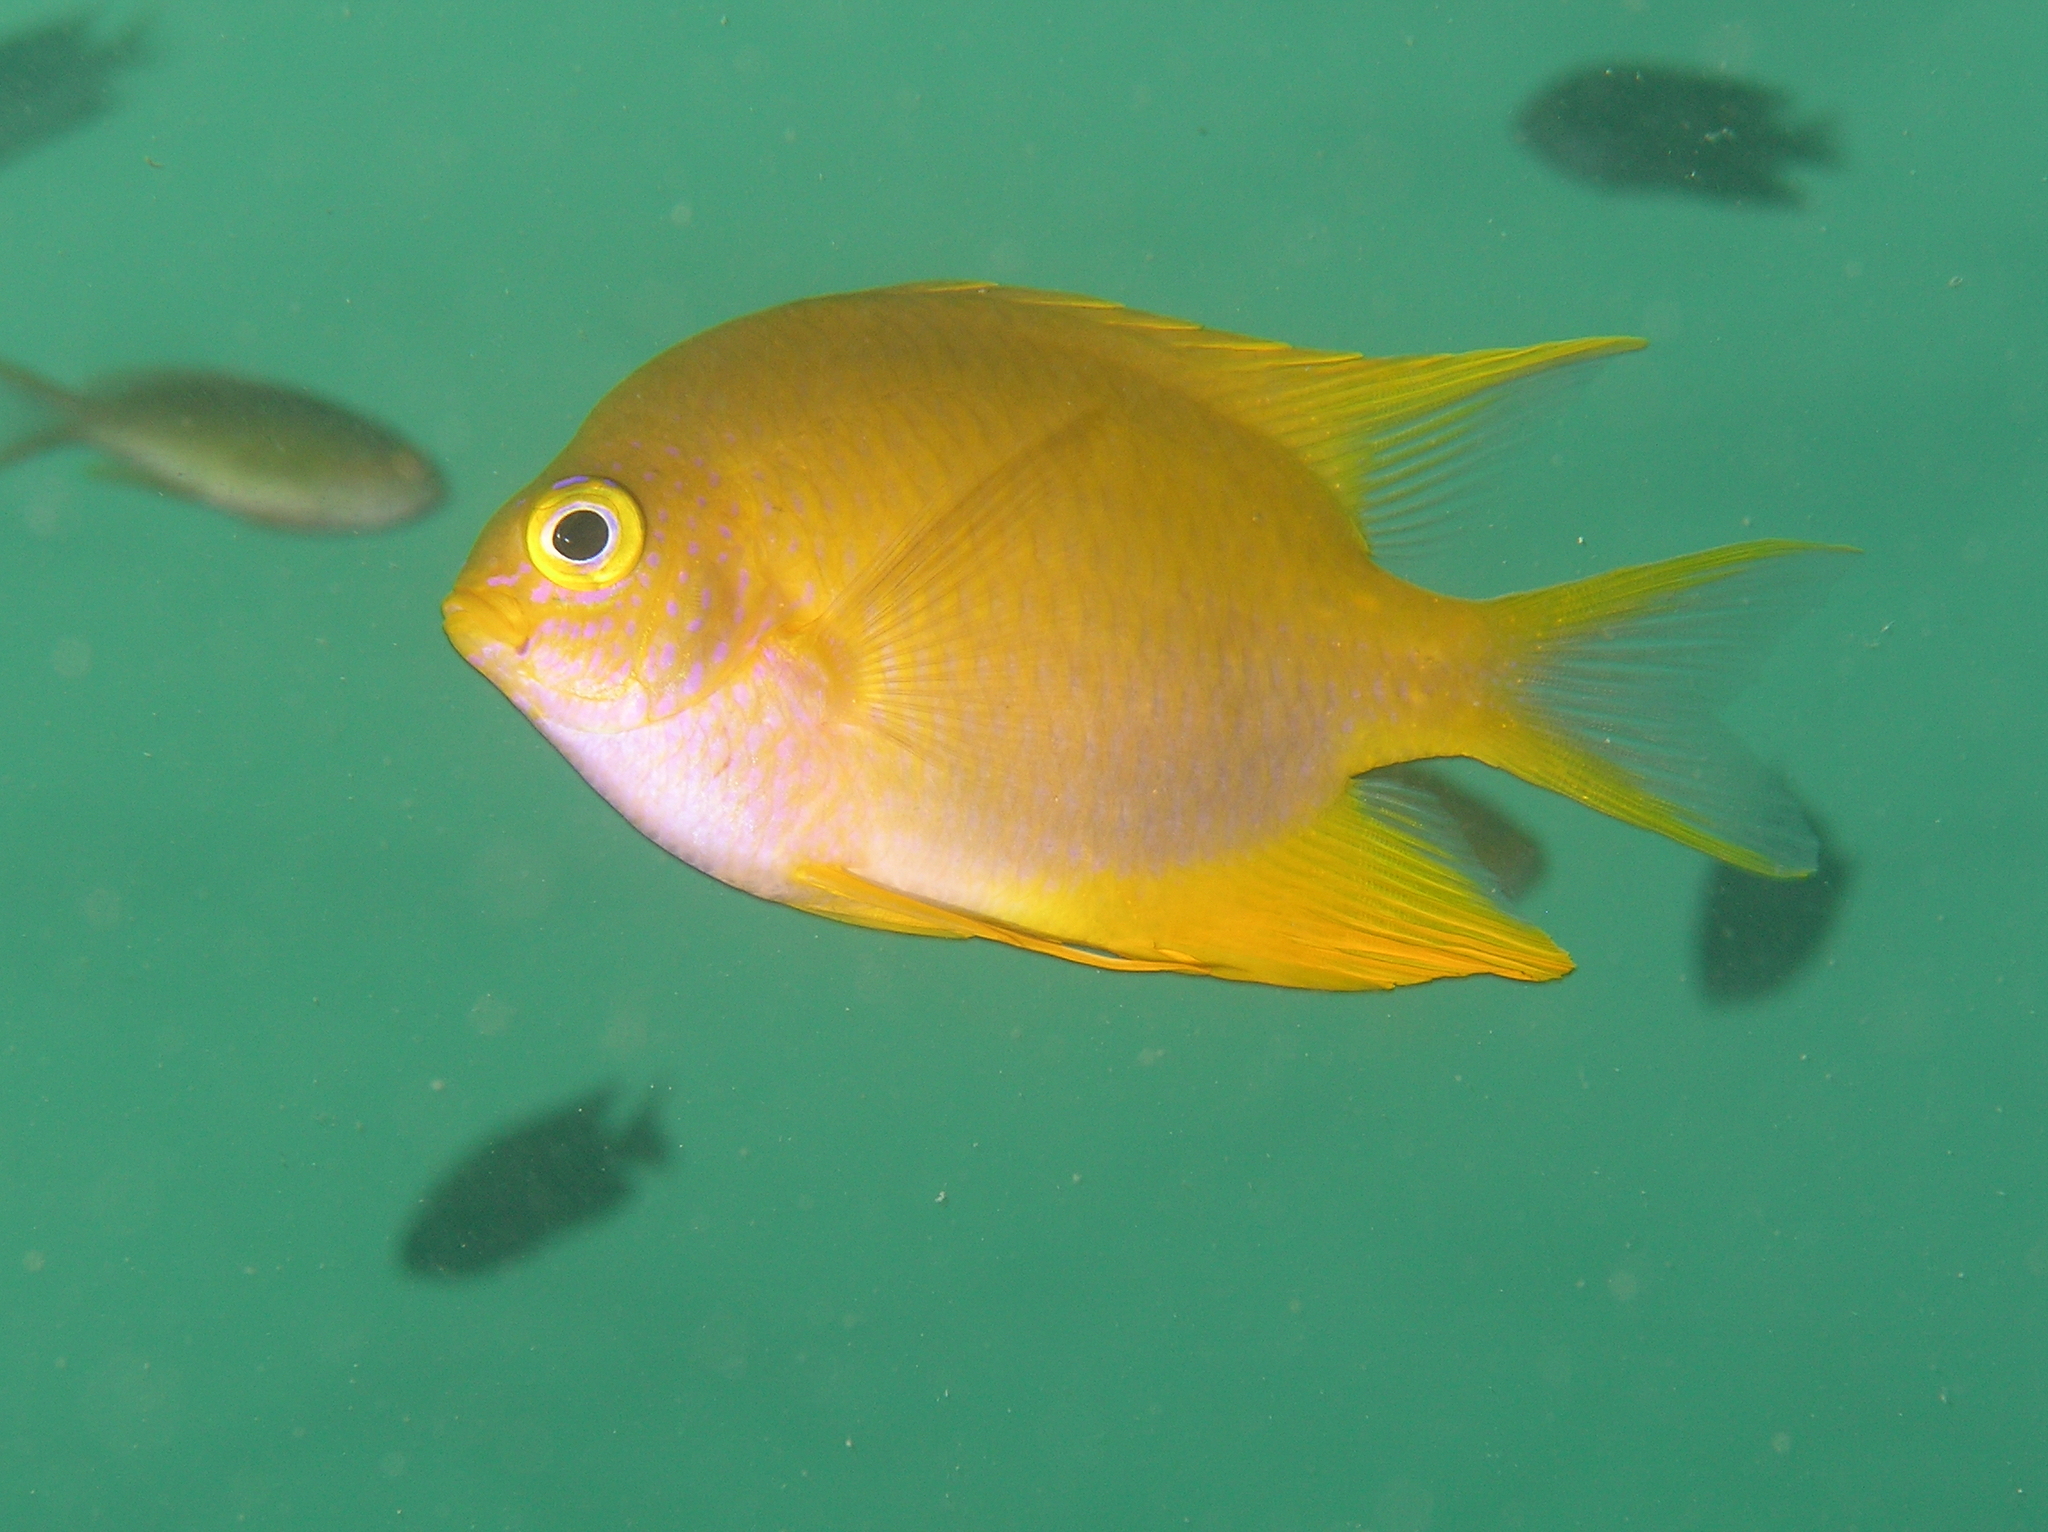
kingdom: Animalia
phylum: Chordata
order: Perciformes
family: Pomacentridae
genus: Amblyglyphidodon
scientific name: Amblyglyphidodon aureus
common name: Golden damsel
